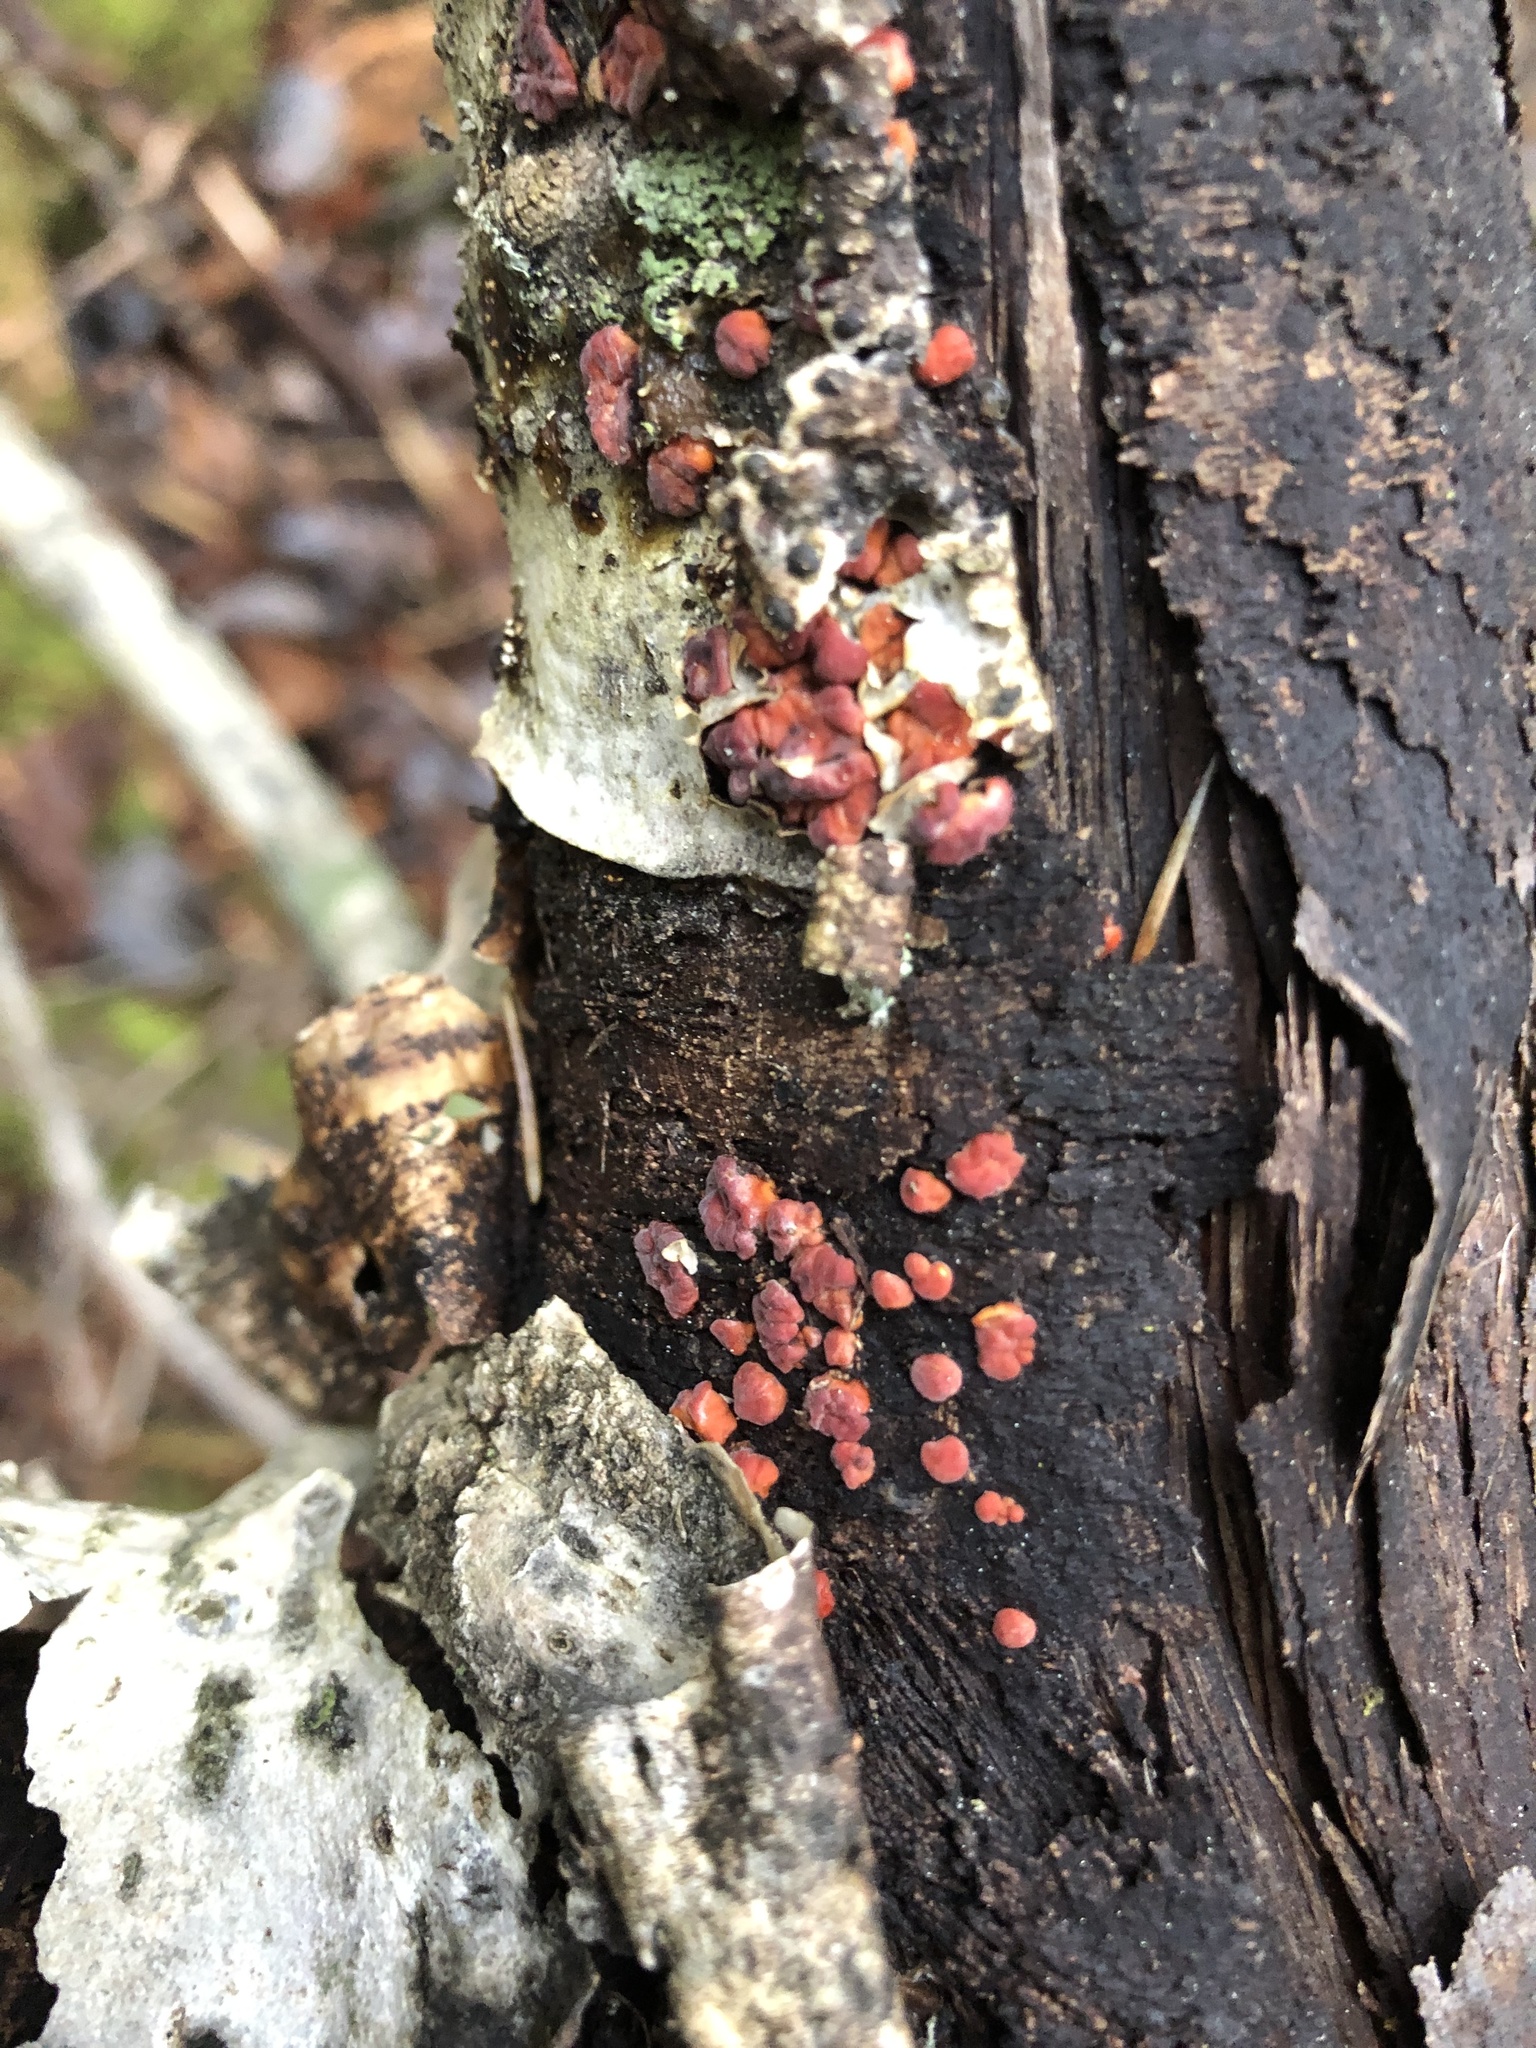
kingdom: Fungi
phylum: Basidiomycota
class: Agaricomycetes
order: Russulales
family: Peniophoraceae
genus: Peniophora
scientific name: Peniophora rufa
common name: Red tree brain fungus
